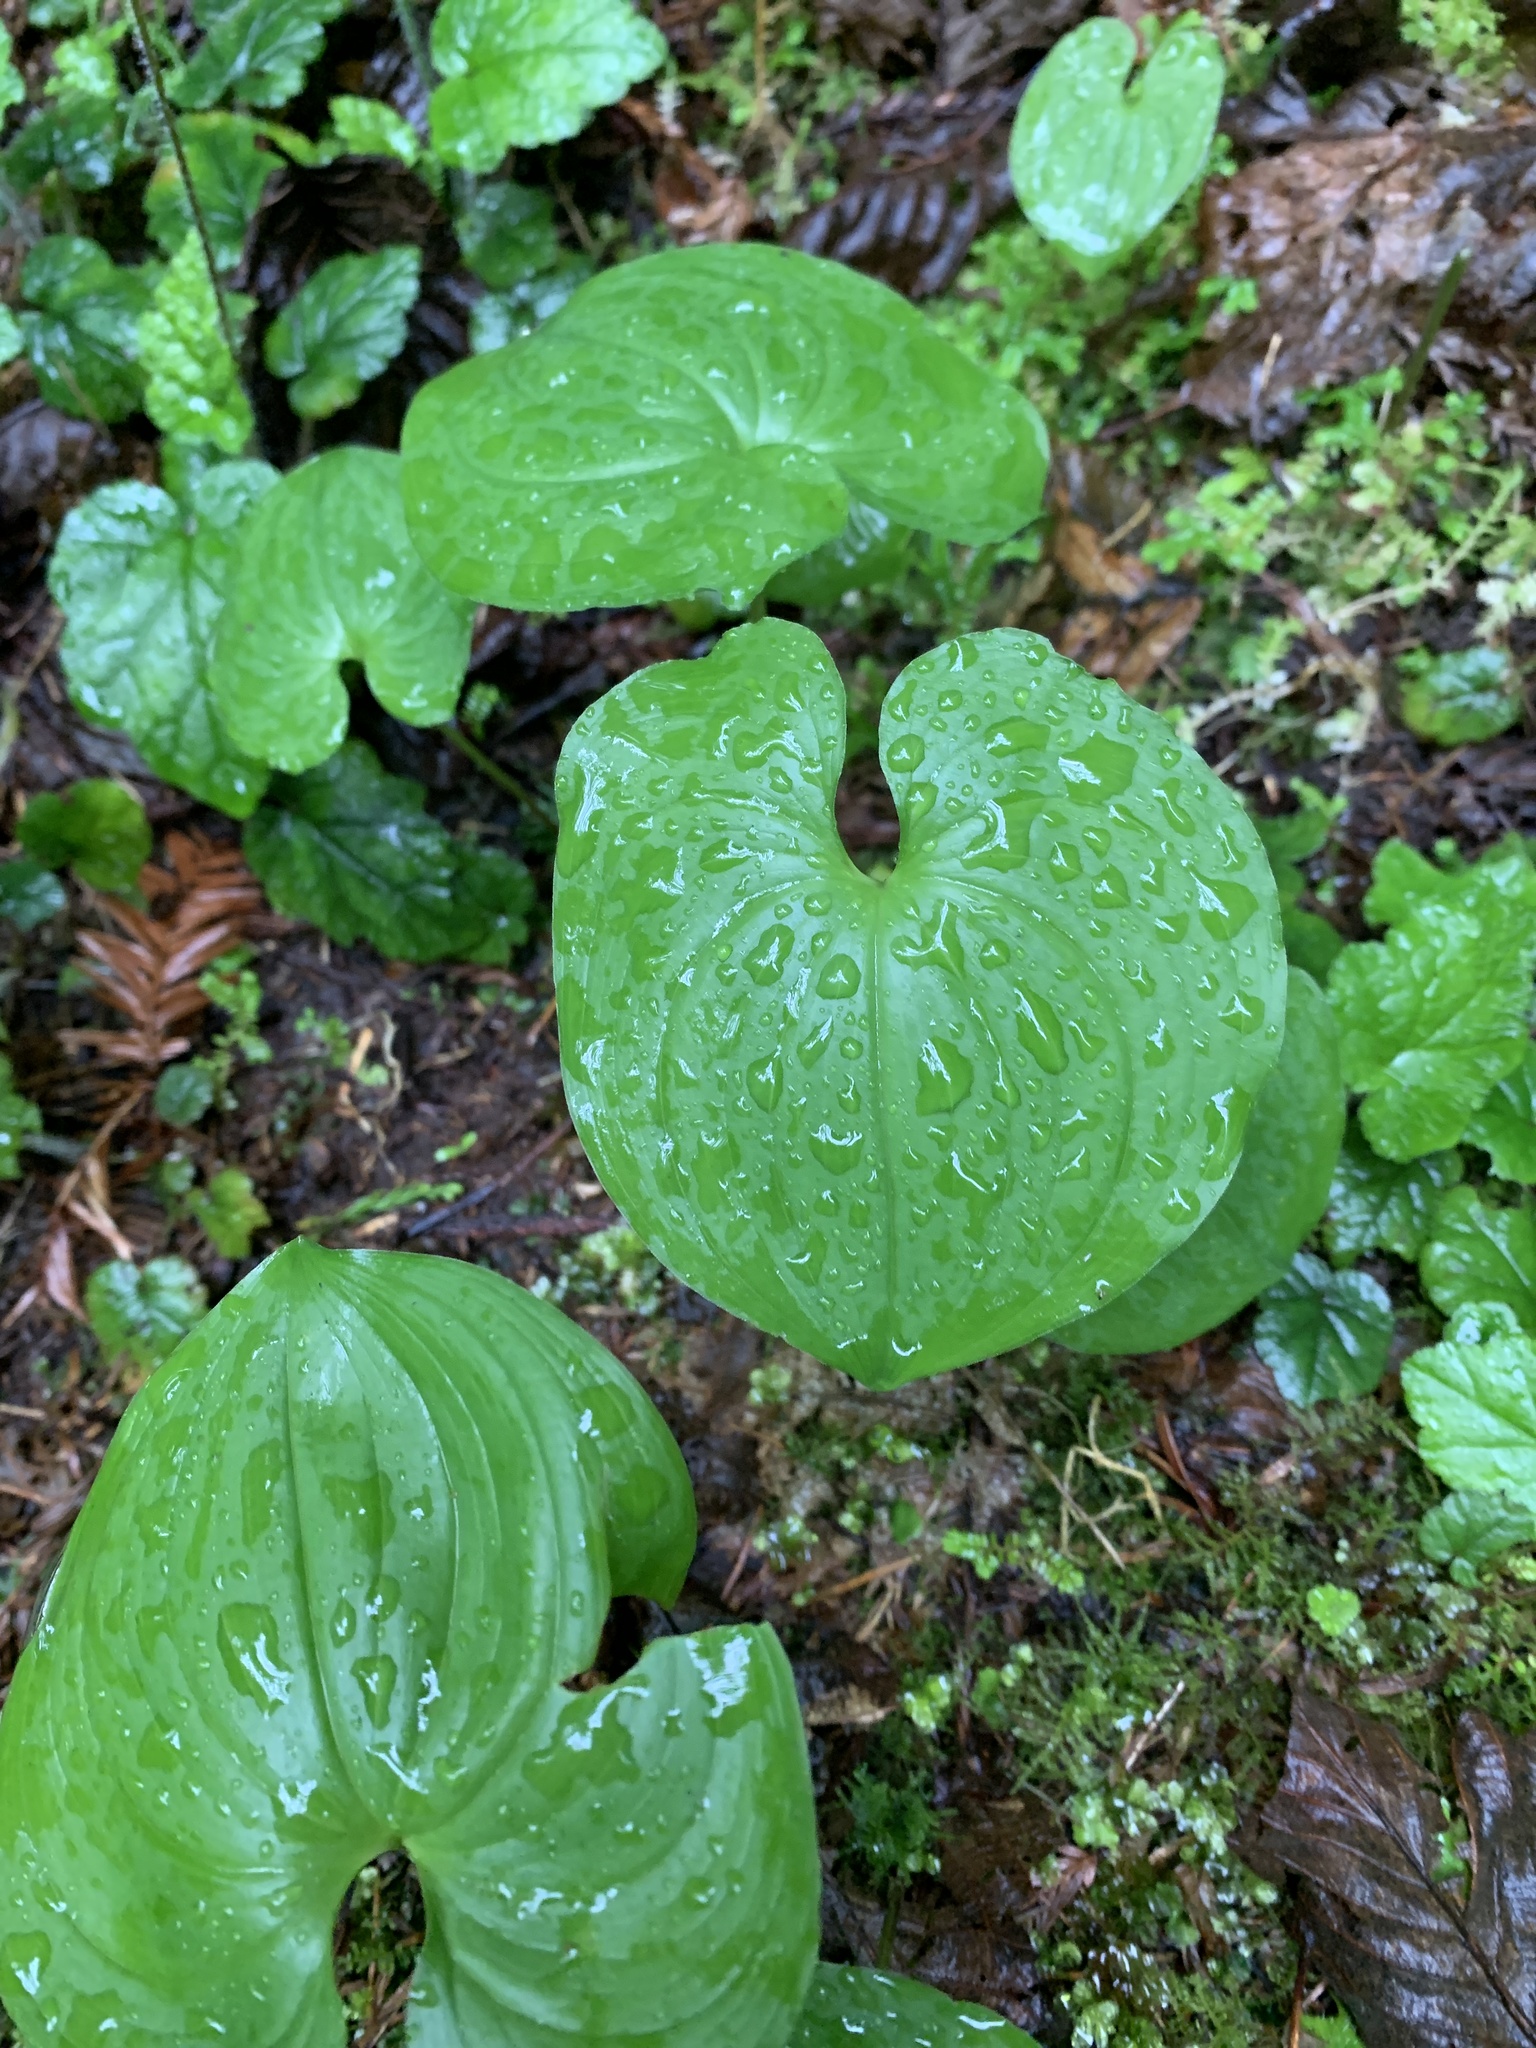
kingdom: Plantae
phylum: Tracheophyta
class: Liliopsida
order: Asparagales
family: Asparagaceae
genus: Maianthemum
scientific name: Maianthemum dilatatum
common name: False lily-of-the-valley
